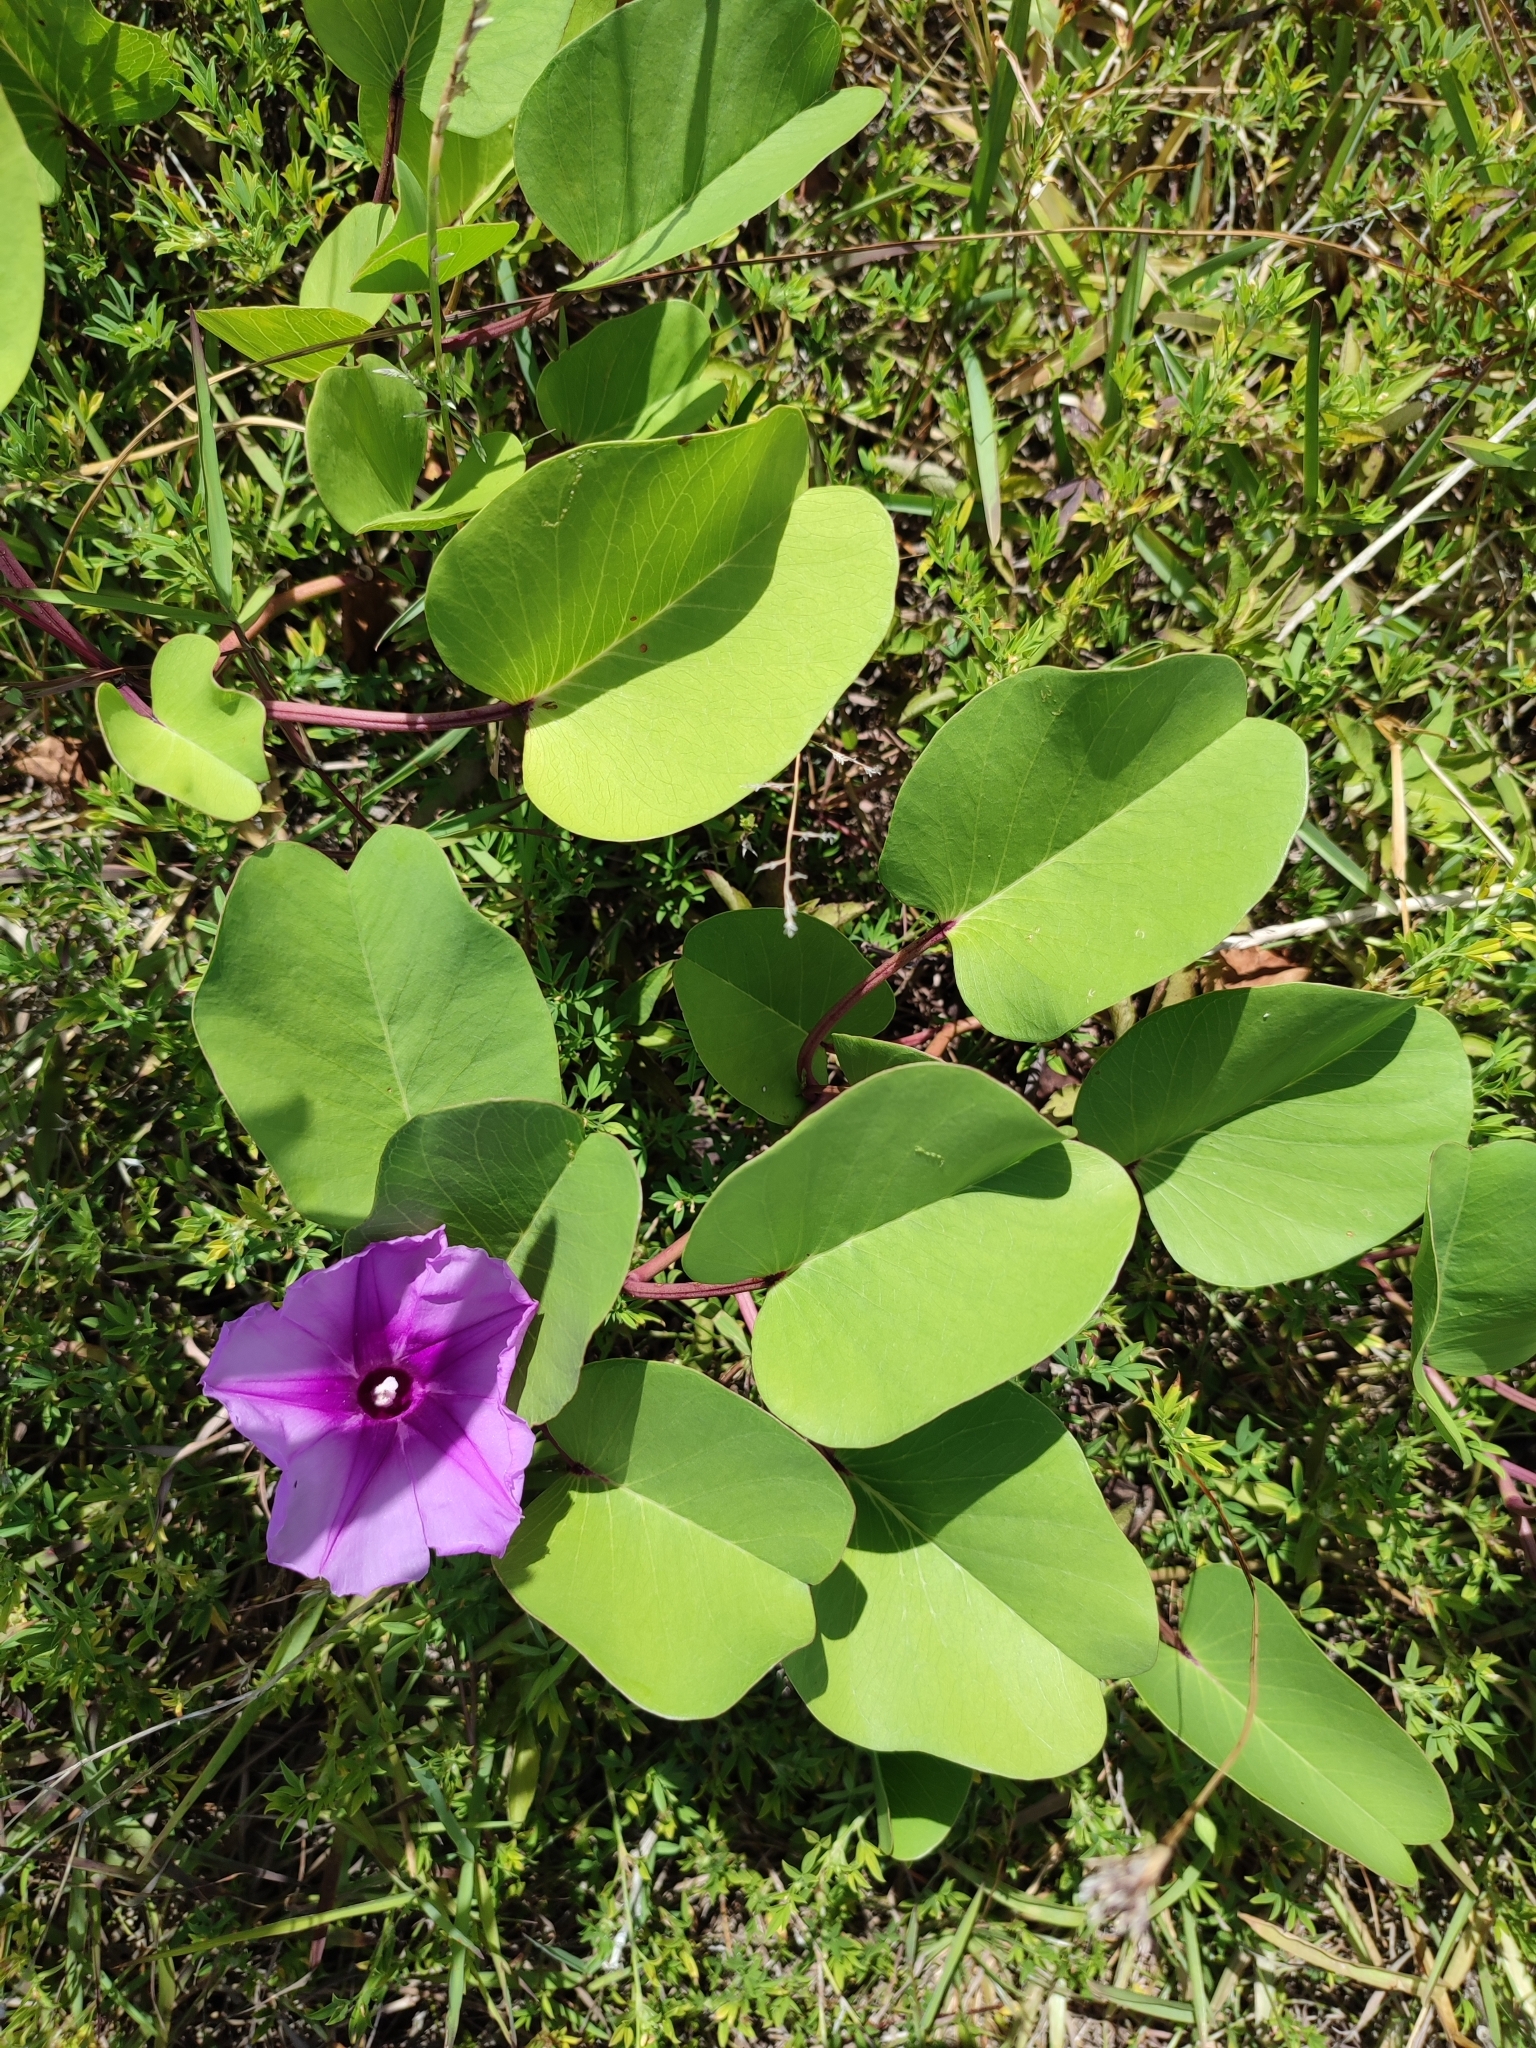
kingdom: Plantae
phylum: Tracheophyta
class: Magnoliopsida
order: Solanales
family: Convolvulaceae
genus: Ipomoea
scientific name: Ipomoea pes-caprae
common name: Beach morning glory
